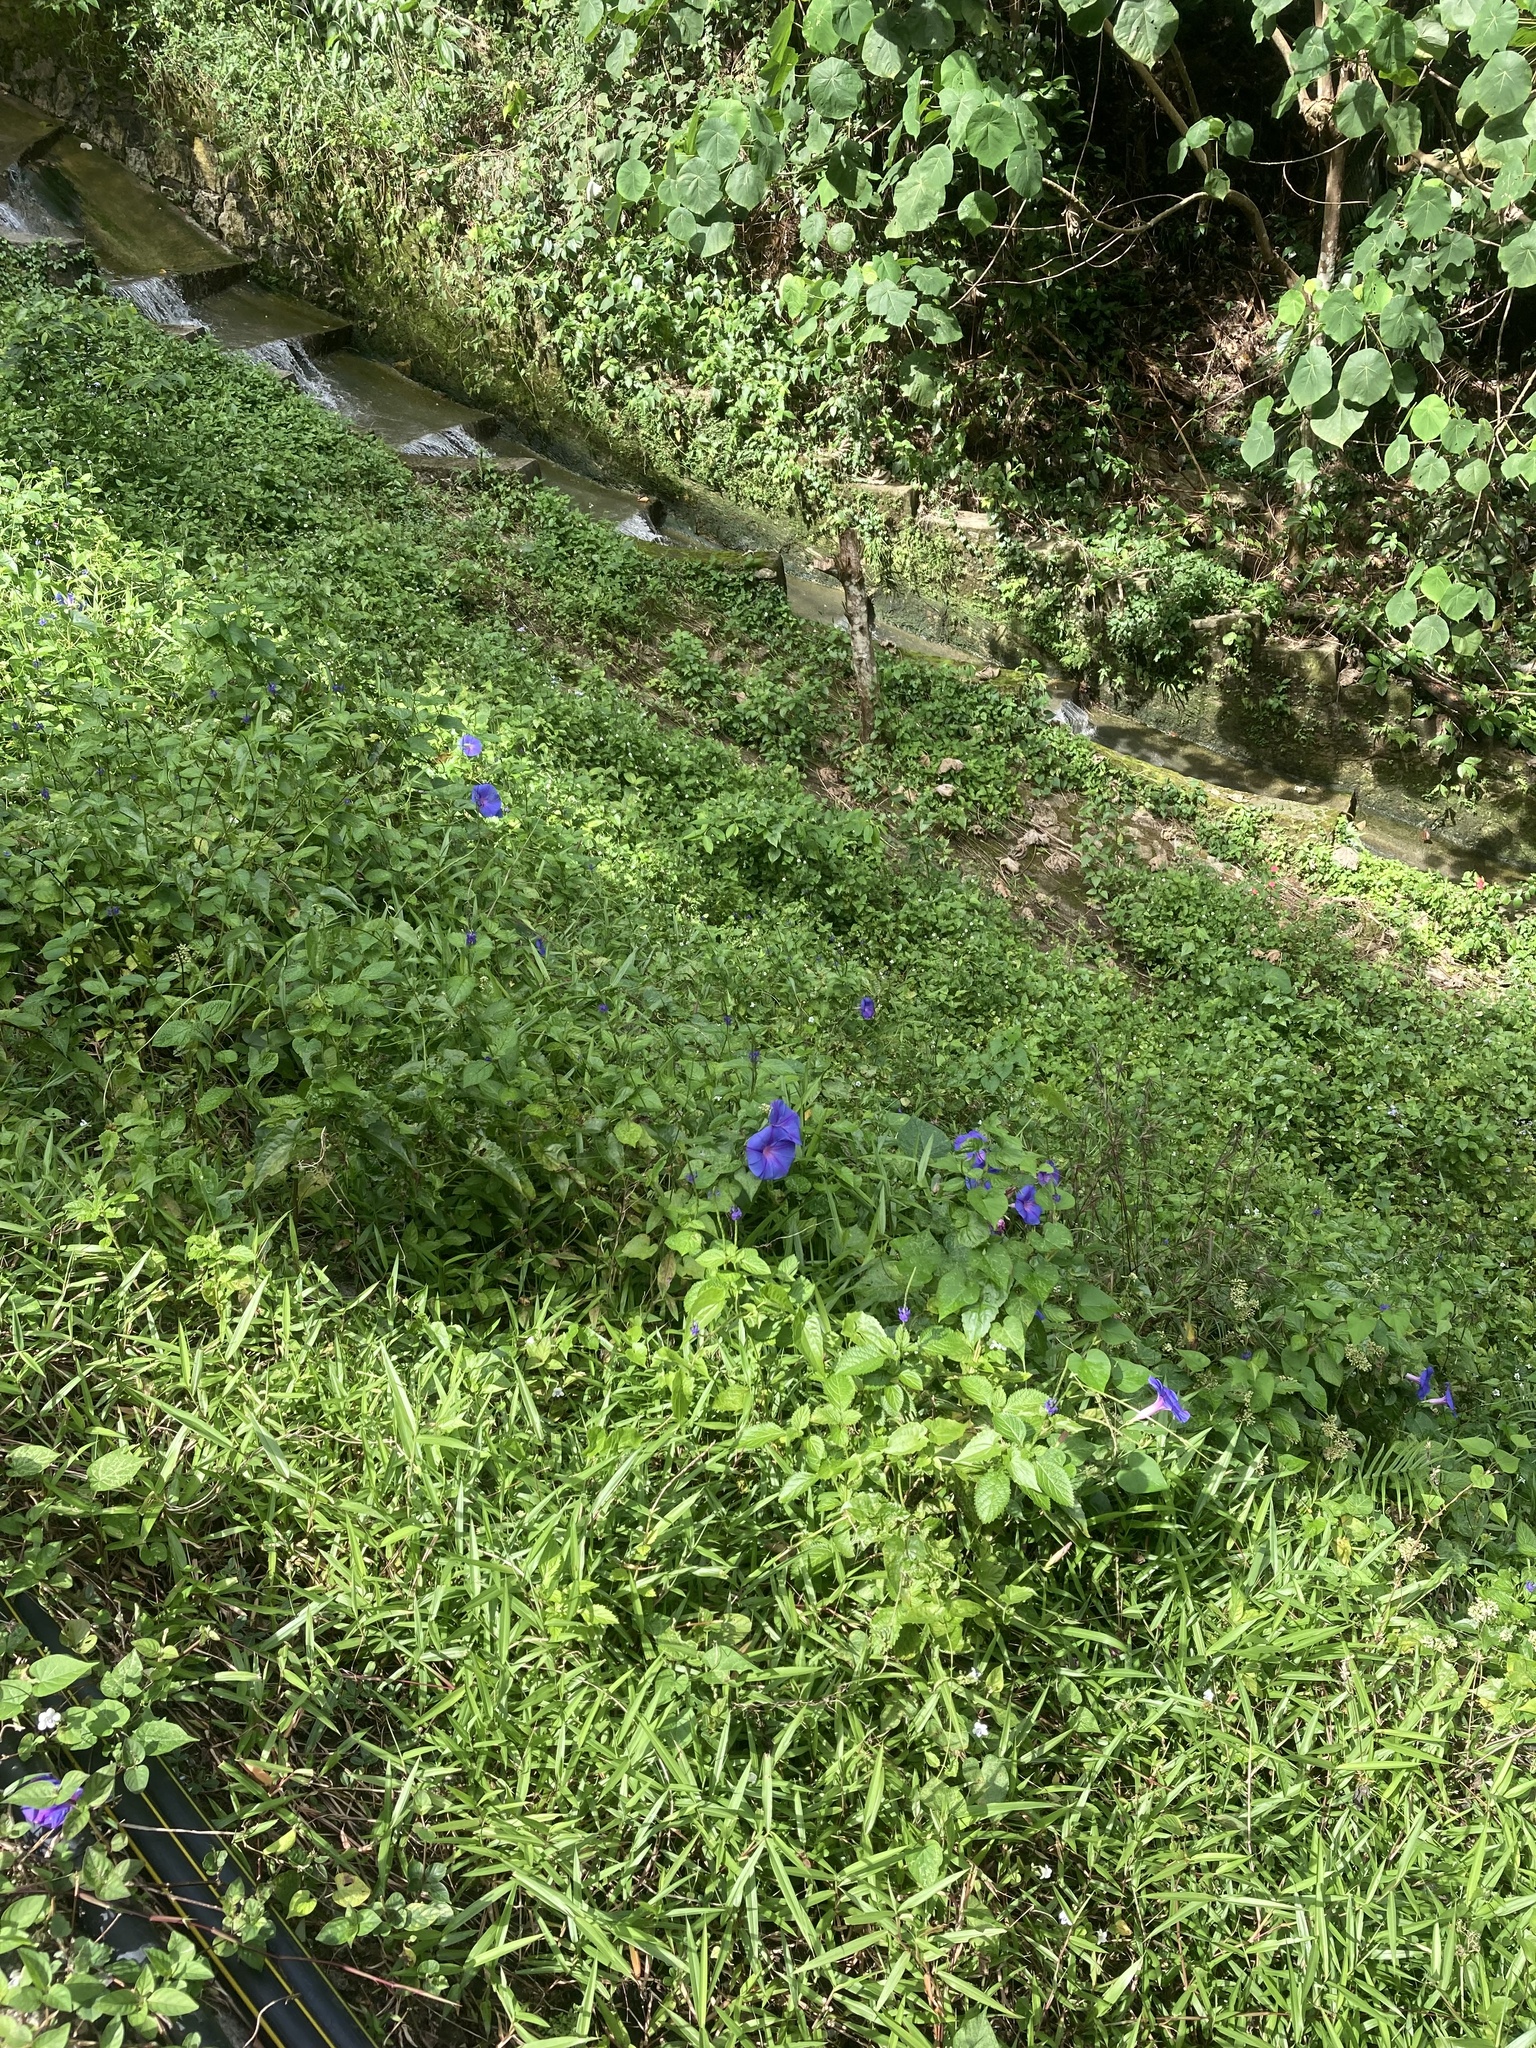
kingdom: Plantae
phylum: Tracheophyta
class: Magnoliopsida
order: Solanales
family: Convolvulaceae
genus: Ipomoea
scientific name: Ipomoea indica
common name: Blue dawnflower
